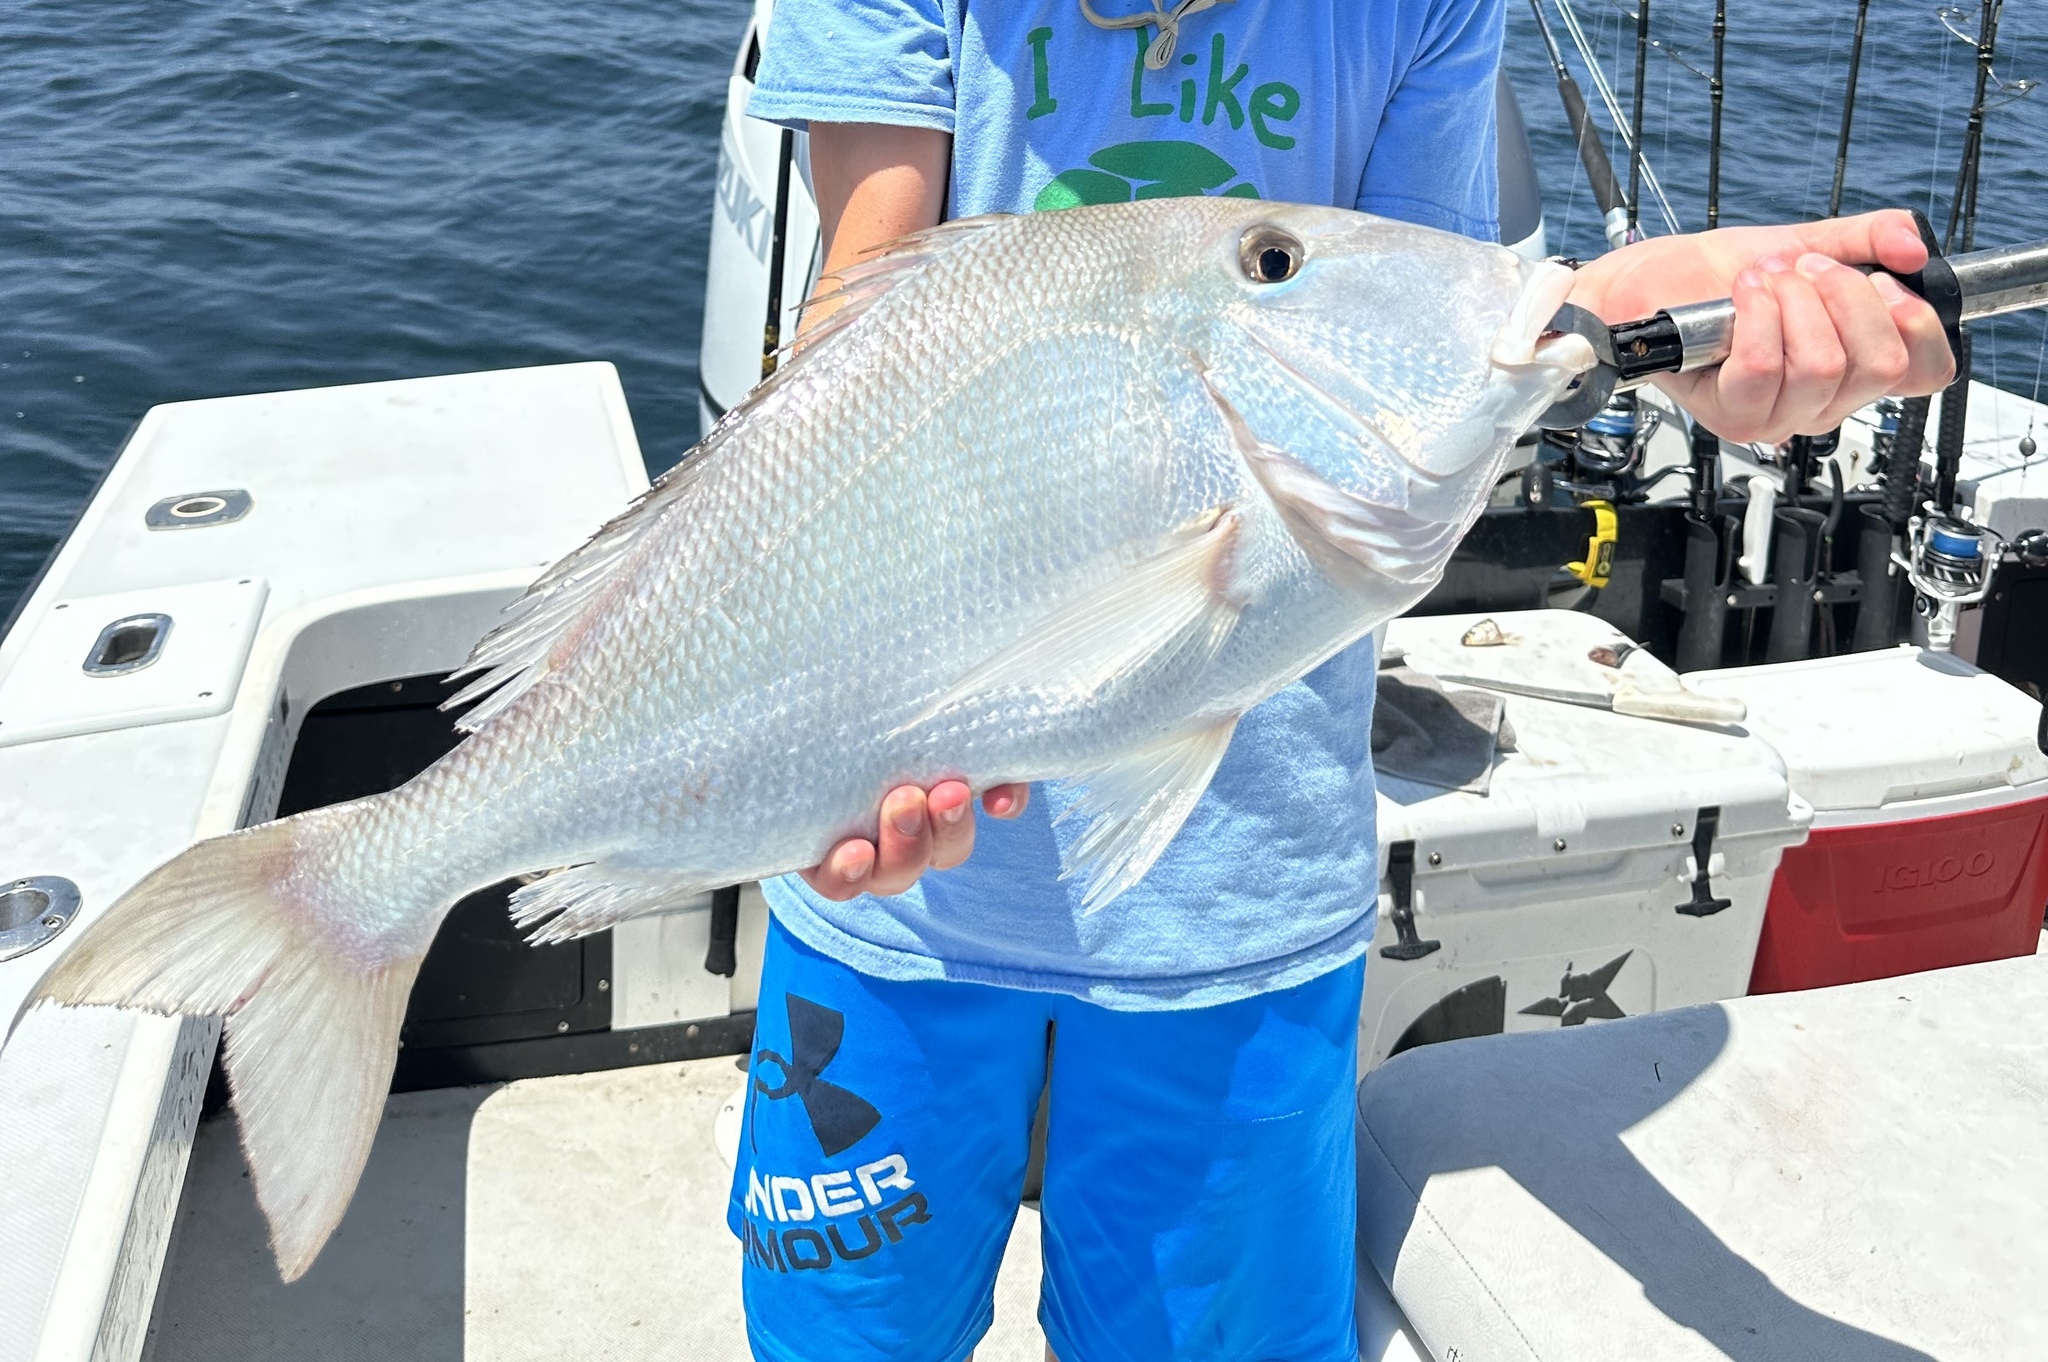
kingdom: Animalia
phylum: Chordata
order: Perciformes
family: Sparidae
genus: Calamus
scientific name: Calamus bajonado
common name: Jolthead porgy
